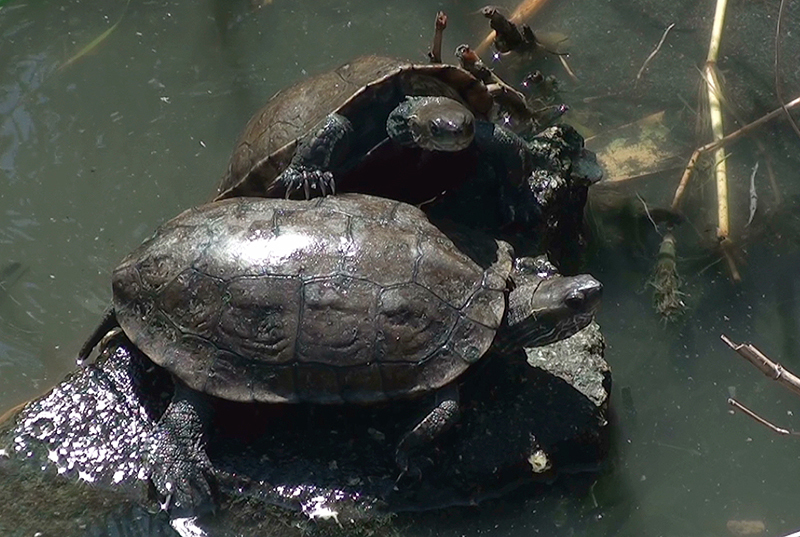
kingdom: Animalia
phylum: Chordata
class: Testudines
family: Geoemydidae
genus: Mauremys
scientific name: Mauremys rivulata
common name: Western caspian turtle
